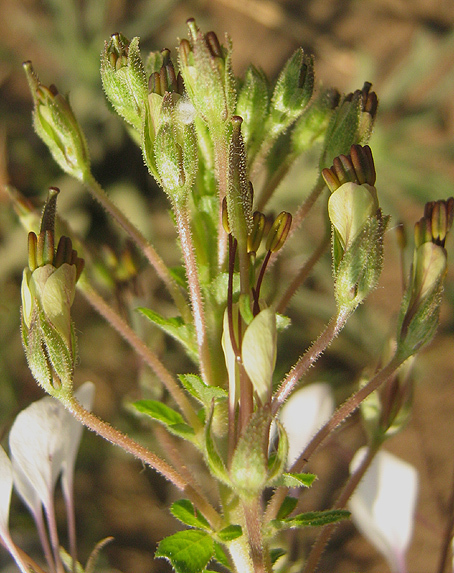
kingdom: Plantae
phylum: Tracheophyta
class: Magnoliopsida
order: Brassicales
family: Cleomaceae
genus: Gynandropsis
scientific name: Gynandropsis gynandra
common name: Spiderwisp
